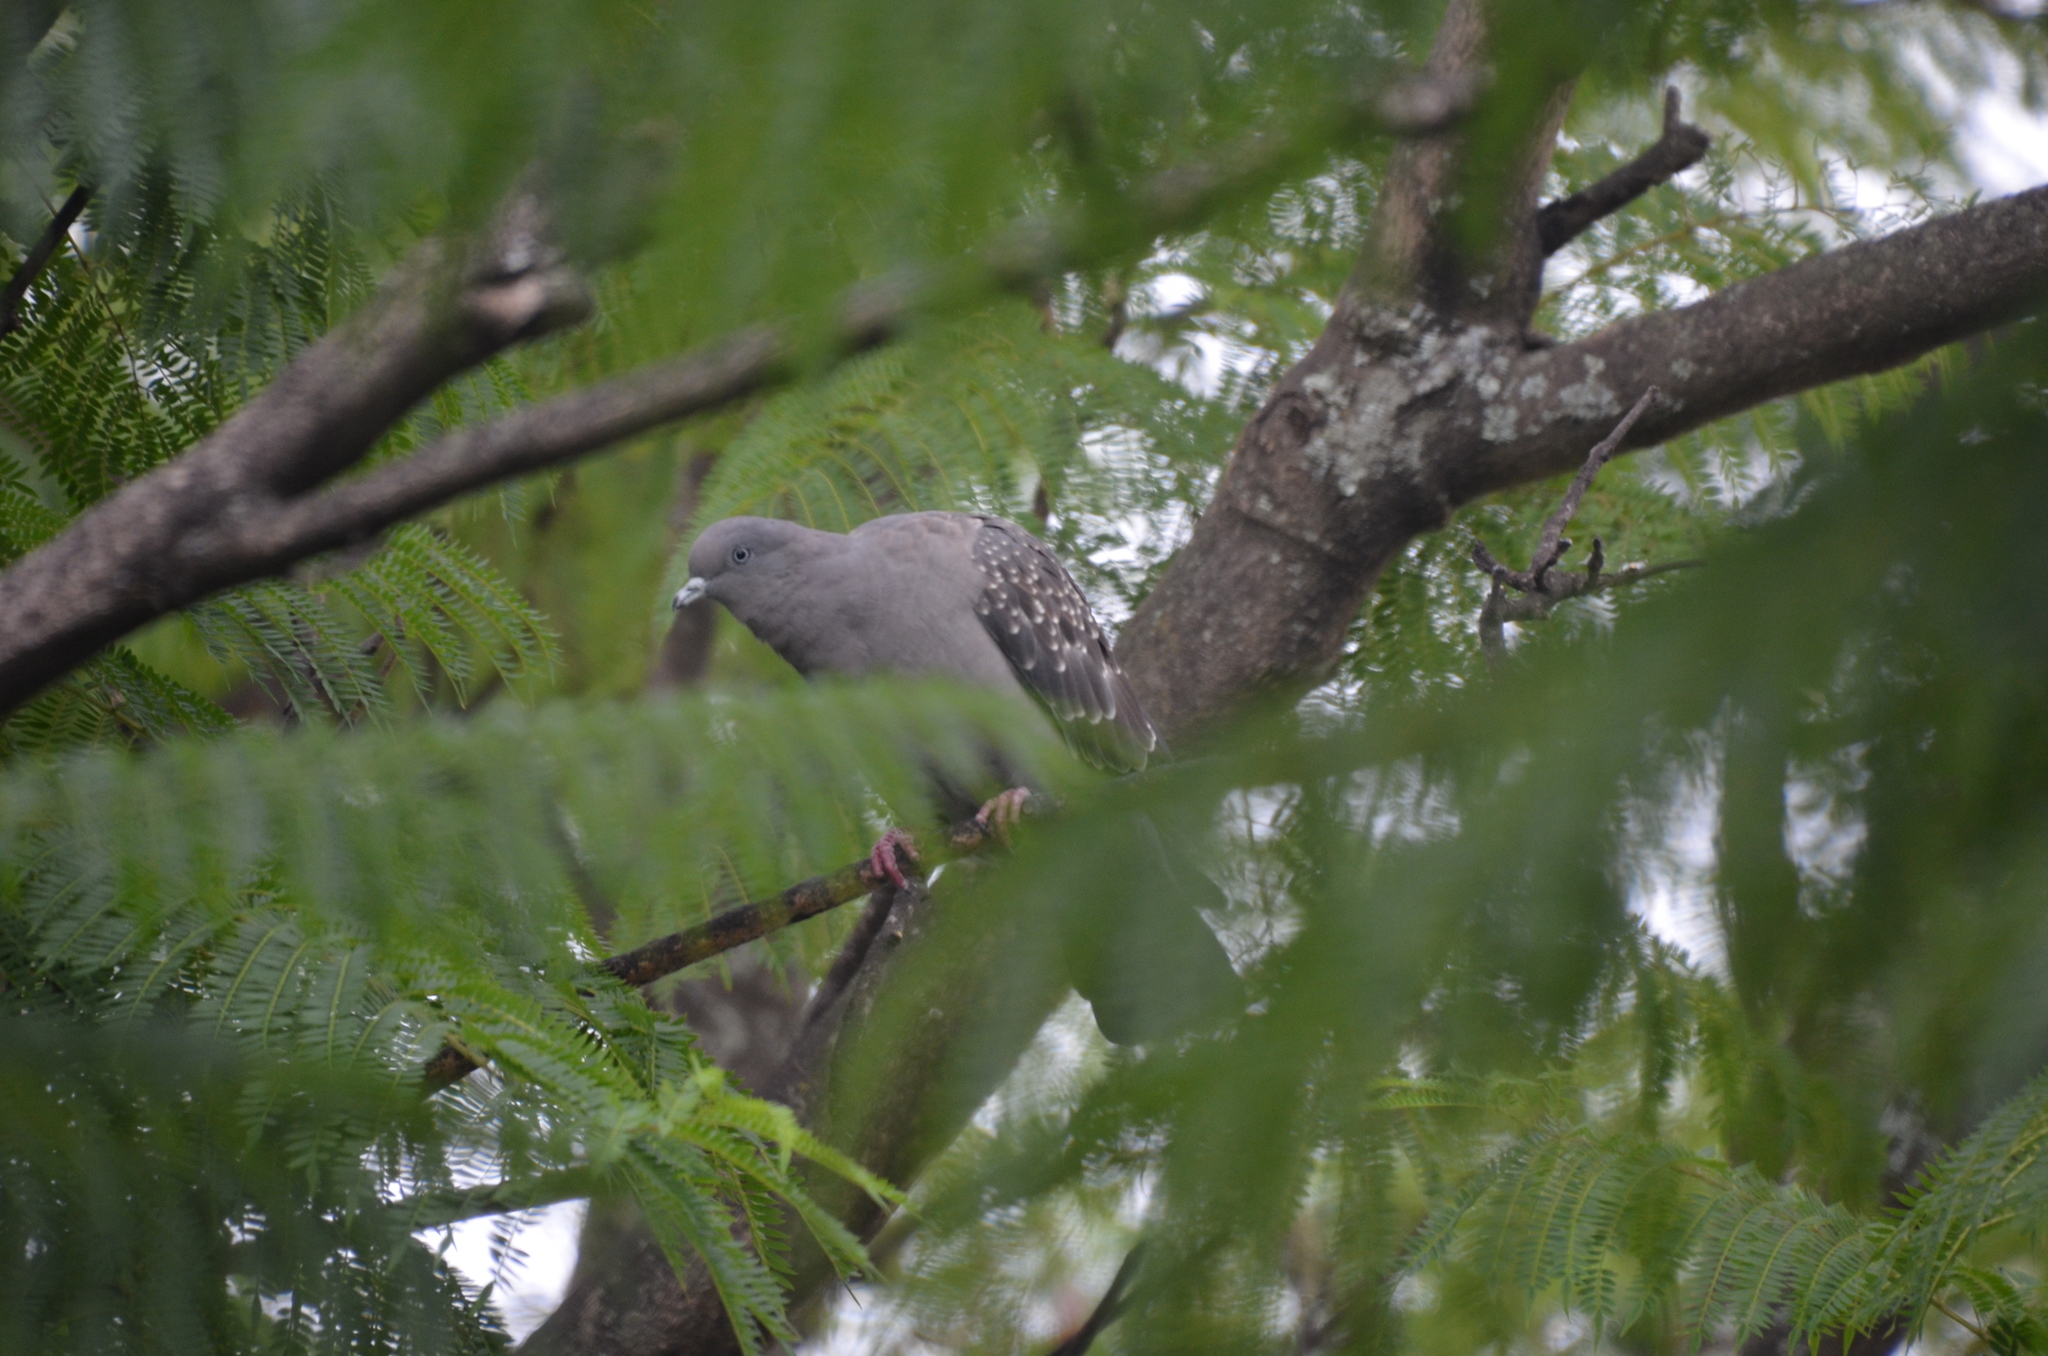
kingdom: Animalia
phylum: Chordata
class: Aves
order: Columbiformes
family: Columbidae
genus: Patagioenas
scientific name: Patagioenas maculosa
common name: Spot-winged pigeon
